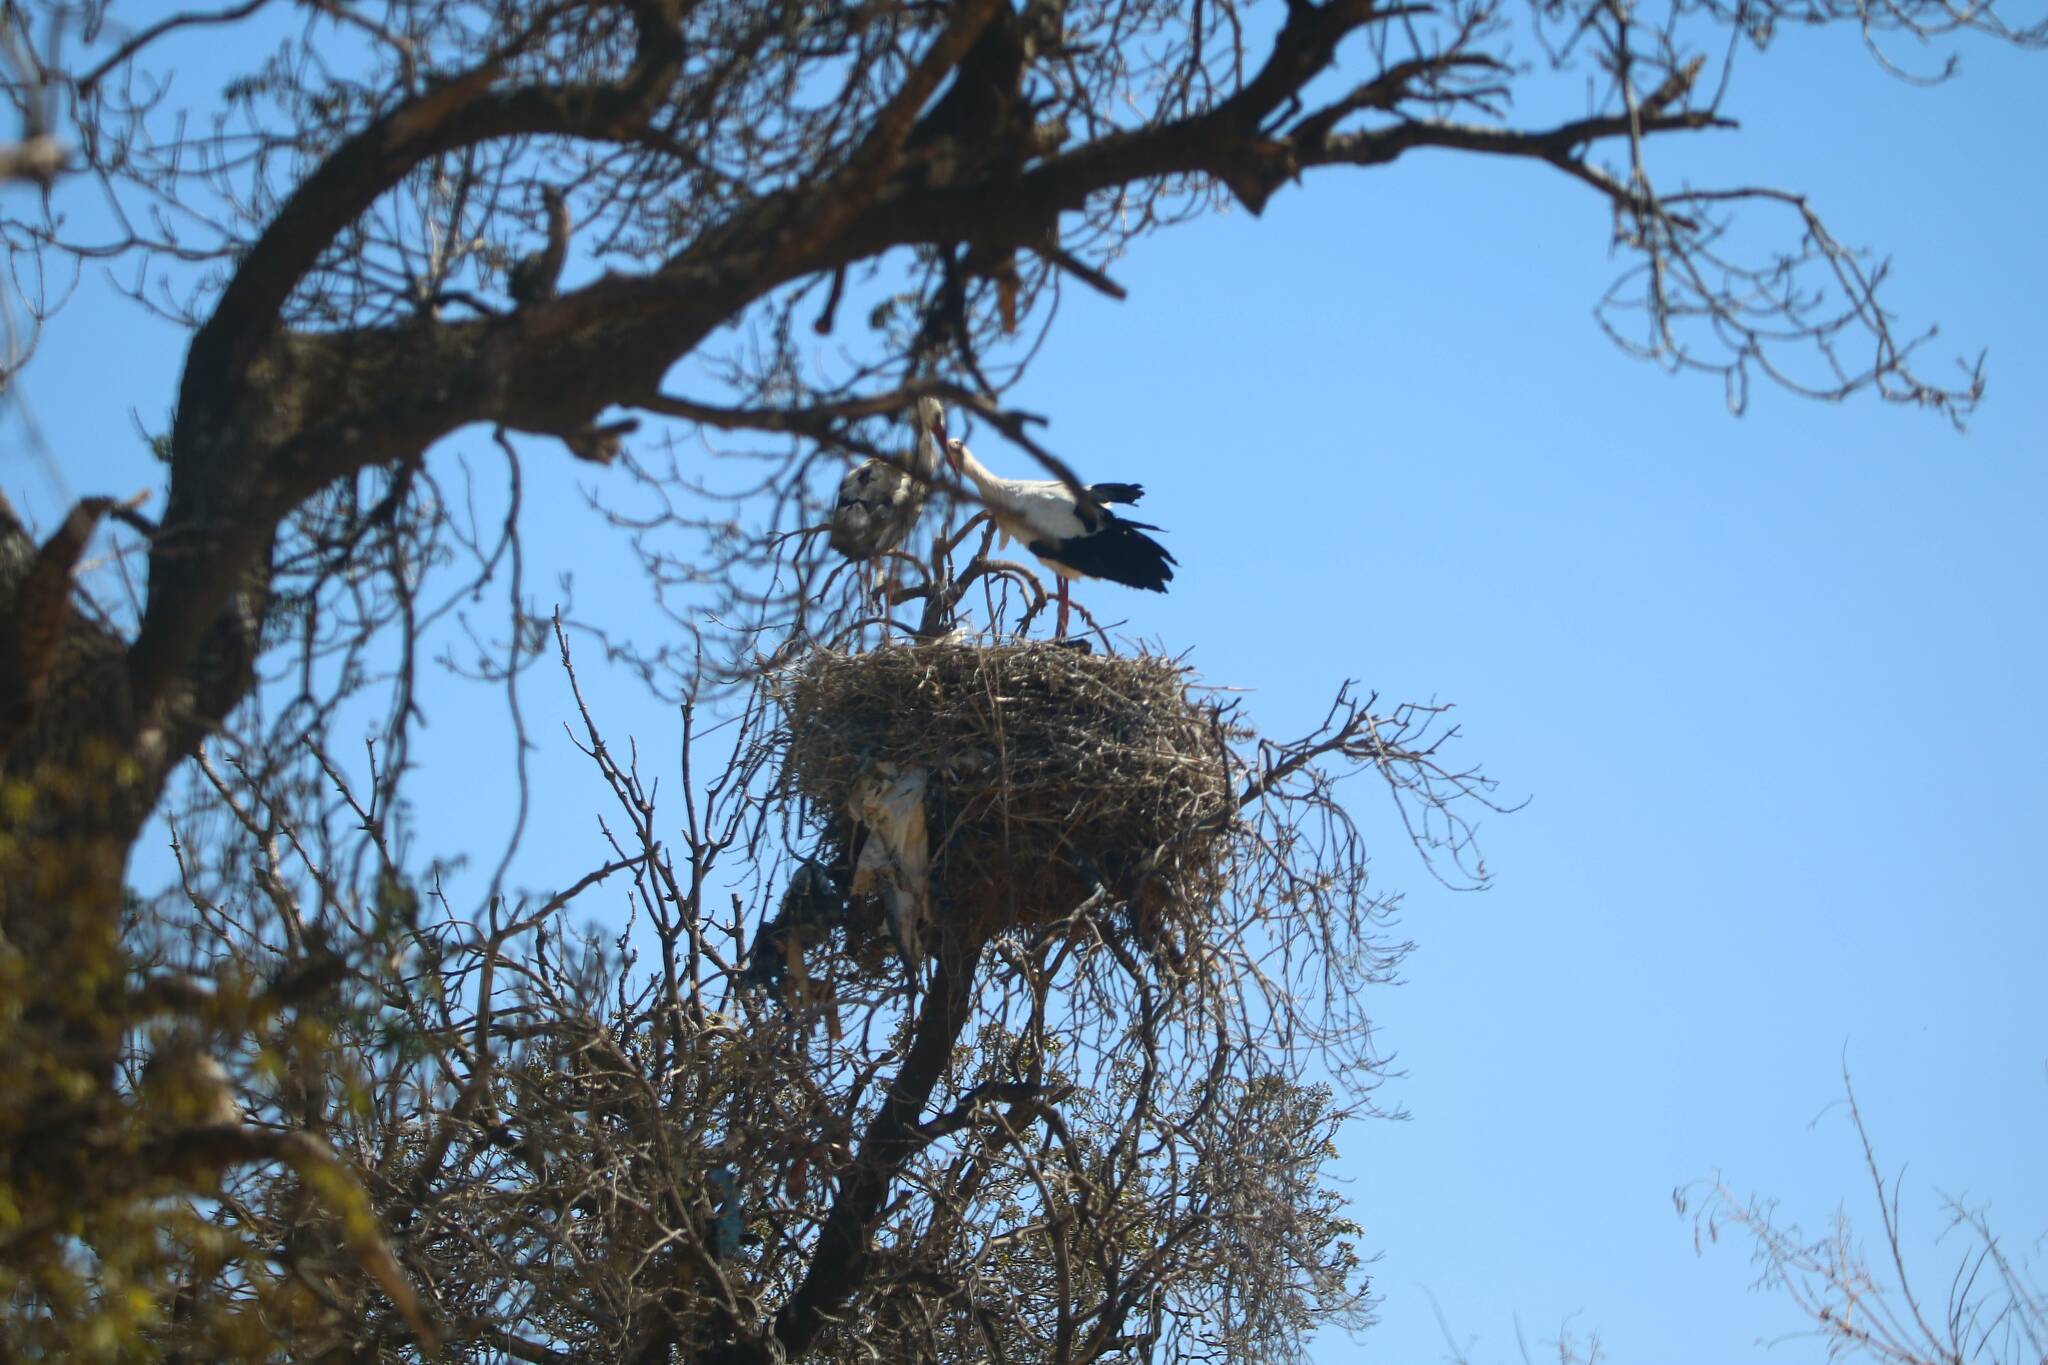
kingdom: Animalia
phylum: Chordata
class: Aves
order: Ciconiiformes
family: Ciconiidae
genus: Ciconia
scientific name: Ciconia ciconia
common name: White stork
